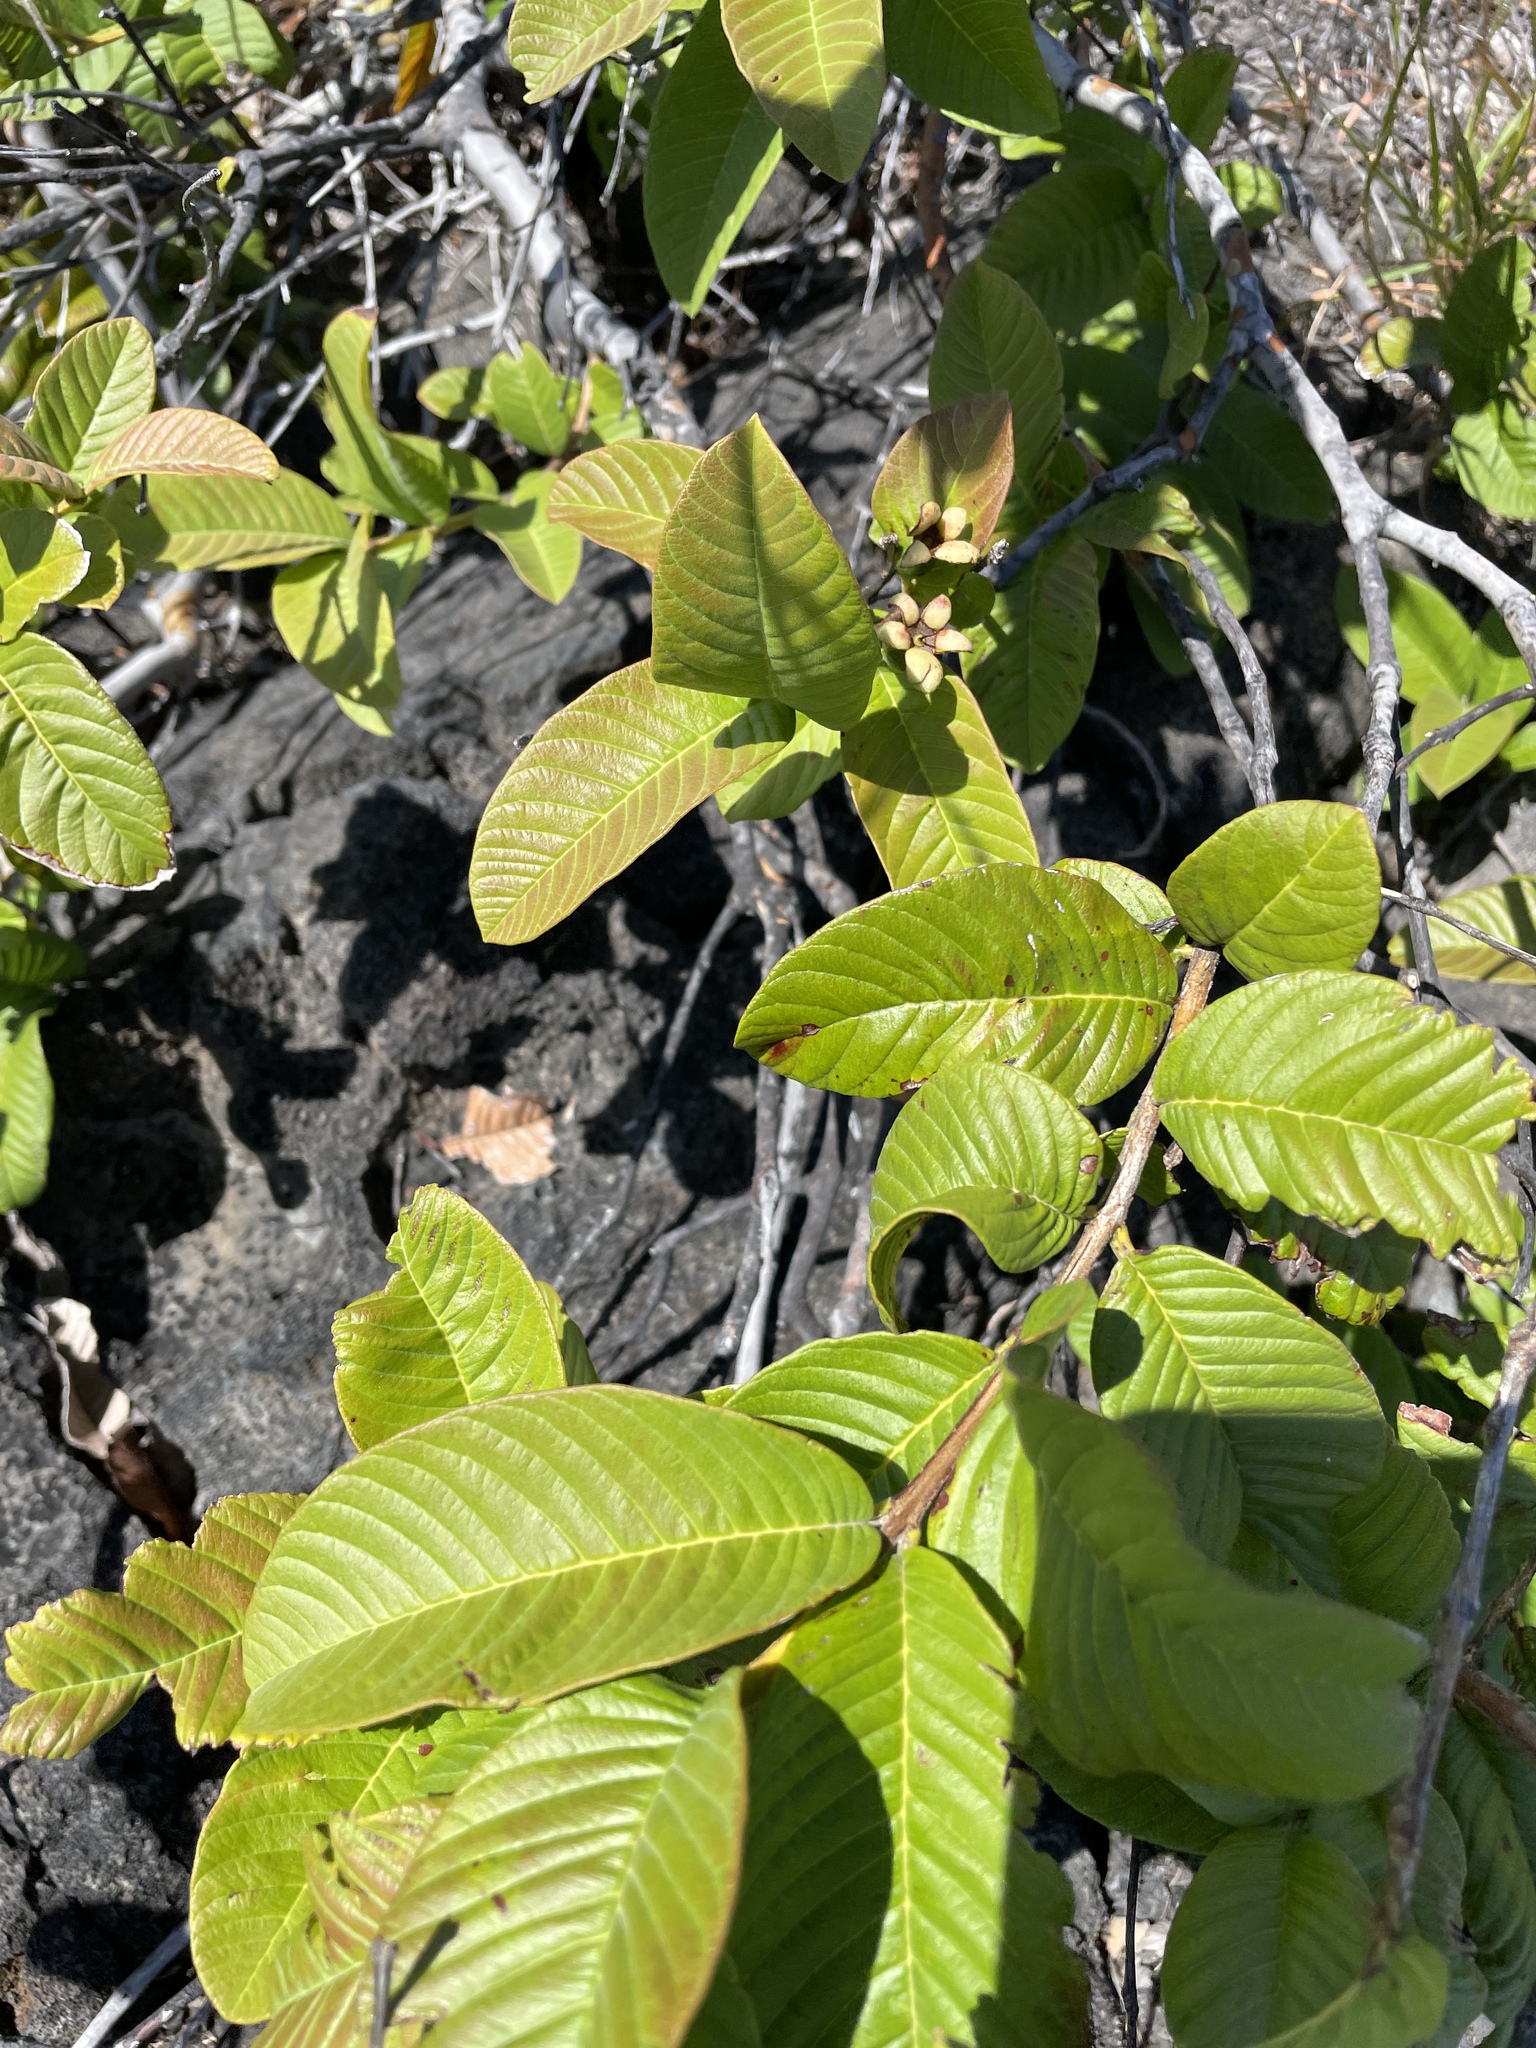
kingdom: Plantae
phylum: Tracheophyta
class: Magnoliopsida
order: Myrtales
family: Myrtaceae
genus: Psidium
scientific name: Psidium guajava
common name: Guava
